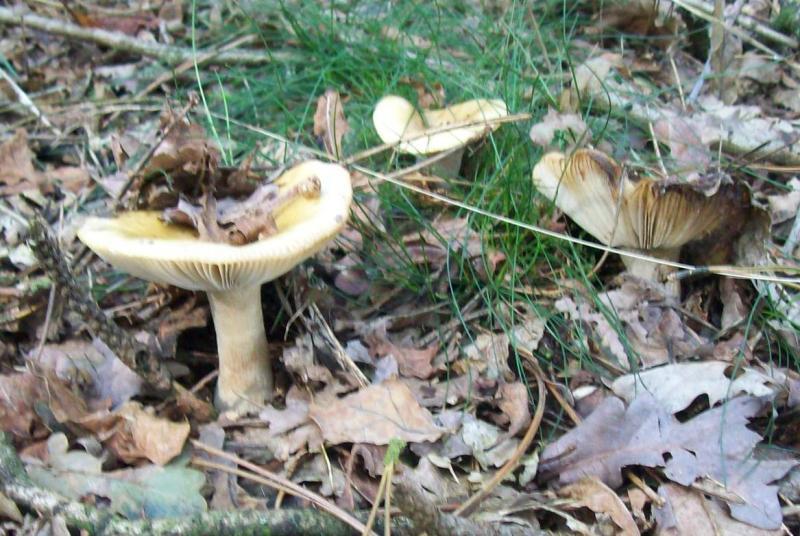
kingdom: Fungi
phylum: Basidiomycota
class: Agaricomycetes
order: Russulales
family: Russulaceae
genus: Russula
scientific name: Russula ochroleuca
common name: Common yellow russula
